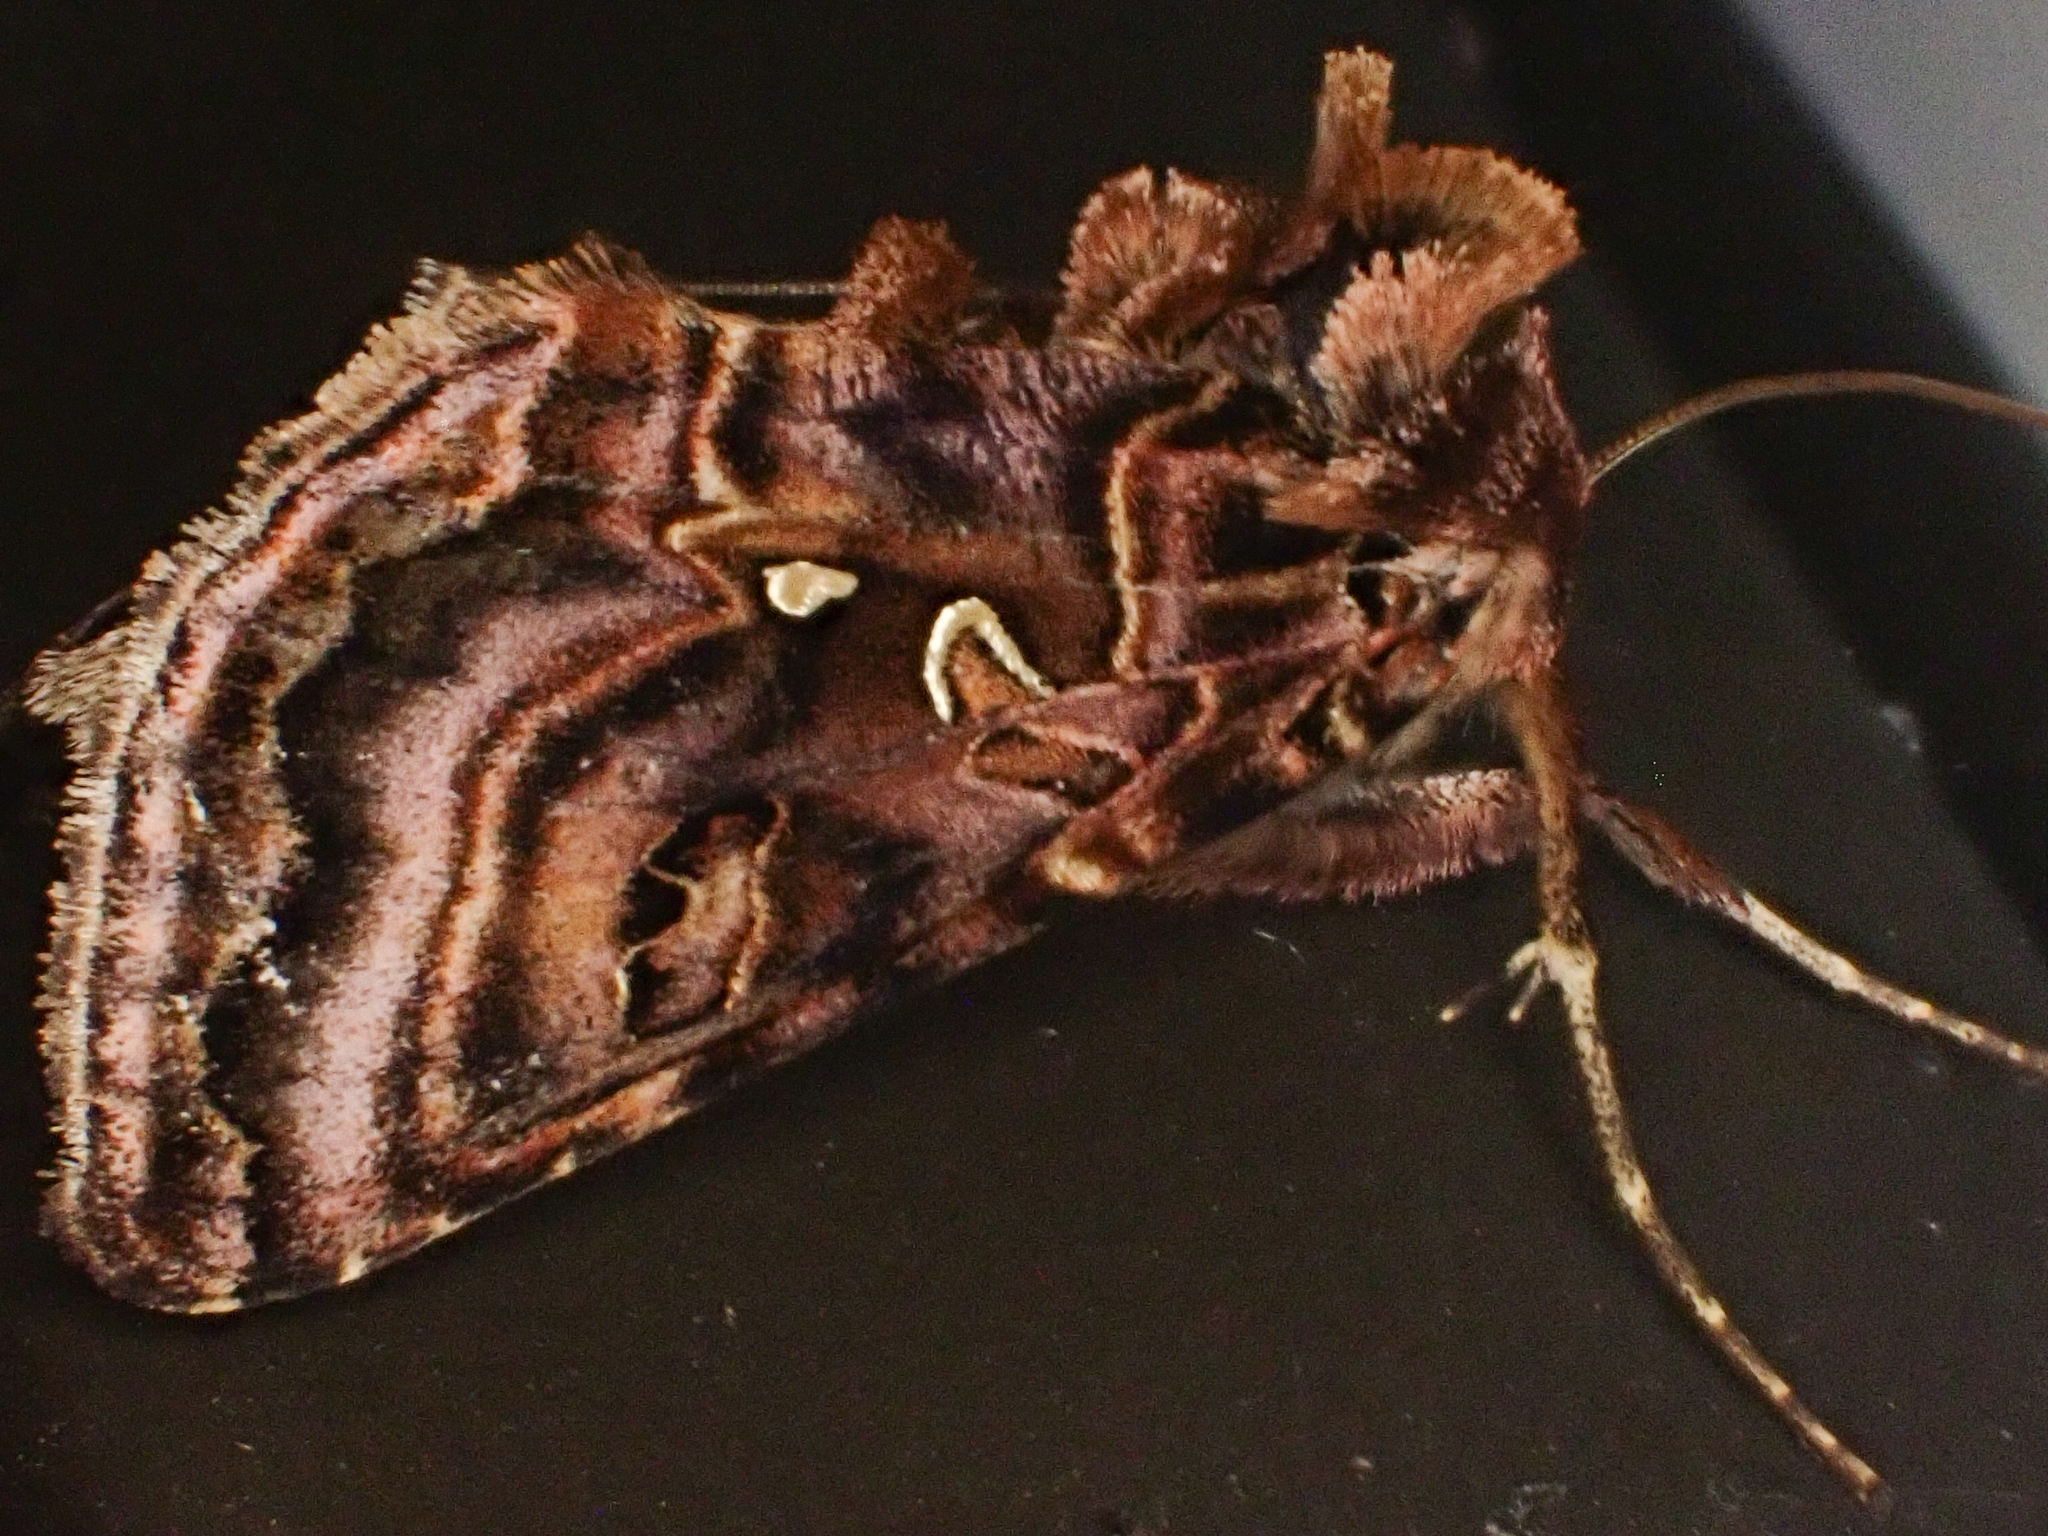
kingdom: Animalia
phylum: Arthropoda
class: Insecta
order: Lepidoptera
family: Noctuidae
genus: Autographa
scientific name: Autographa mappa
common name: Wavy chestnut y moth
